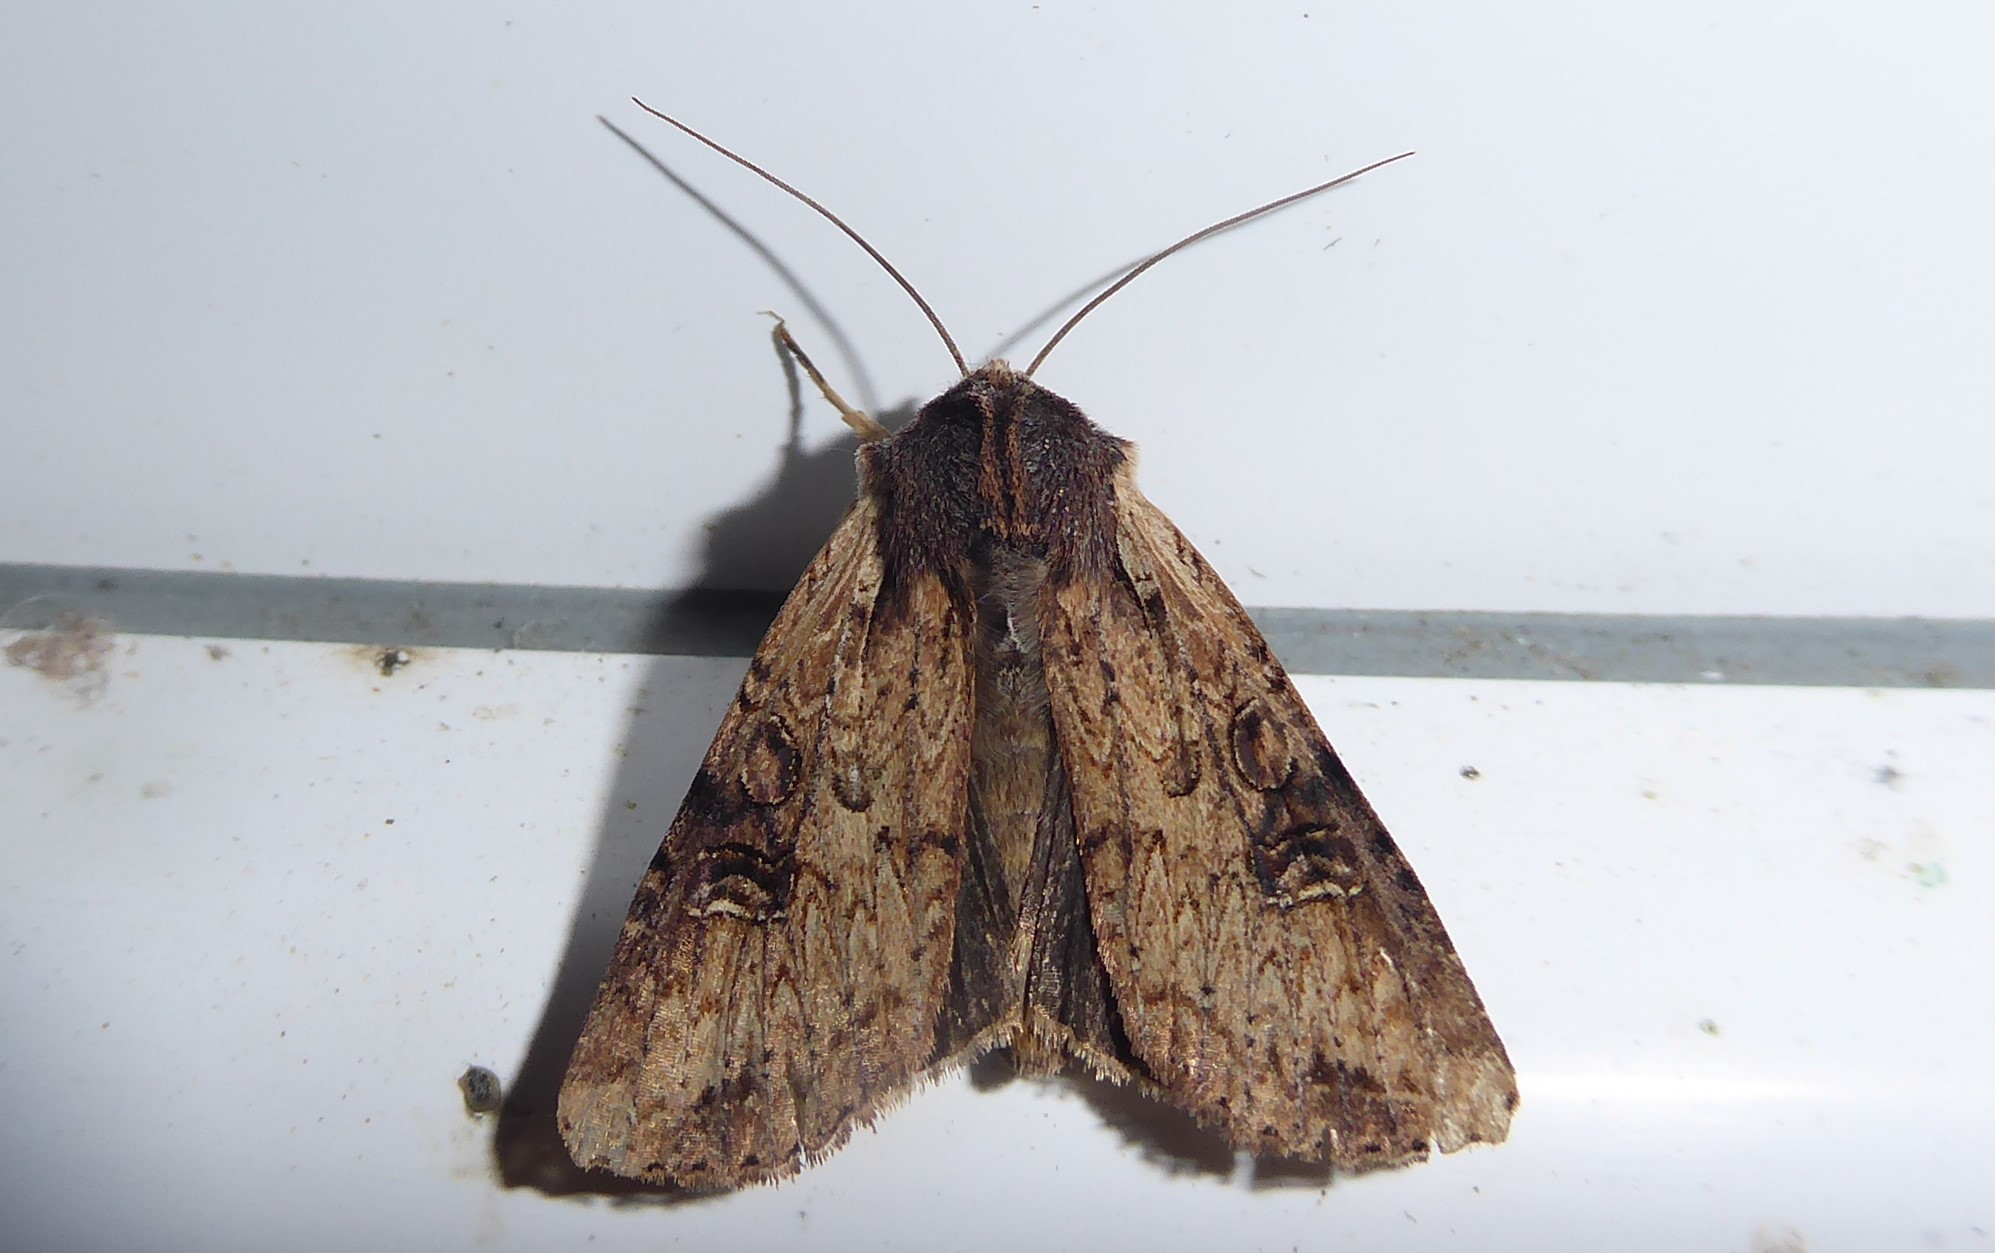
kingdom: Animalia
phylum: Arthropoda
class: Insecta
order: Lepidoptera
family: Noctuidae
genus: Ichneutica
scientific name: Ichneutica omoplaca
